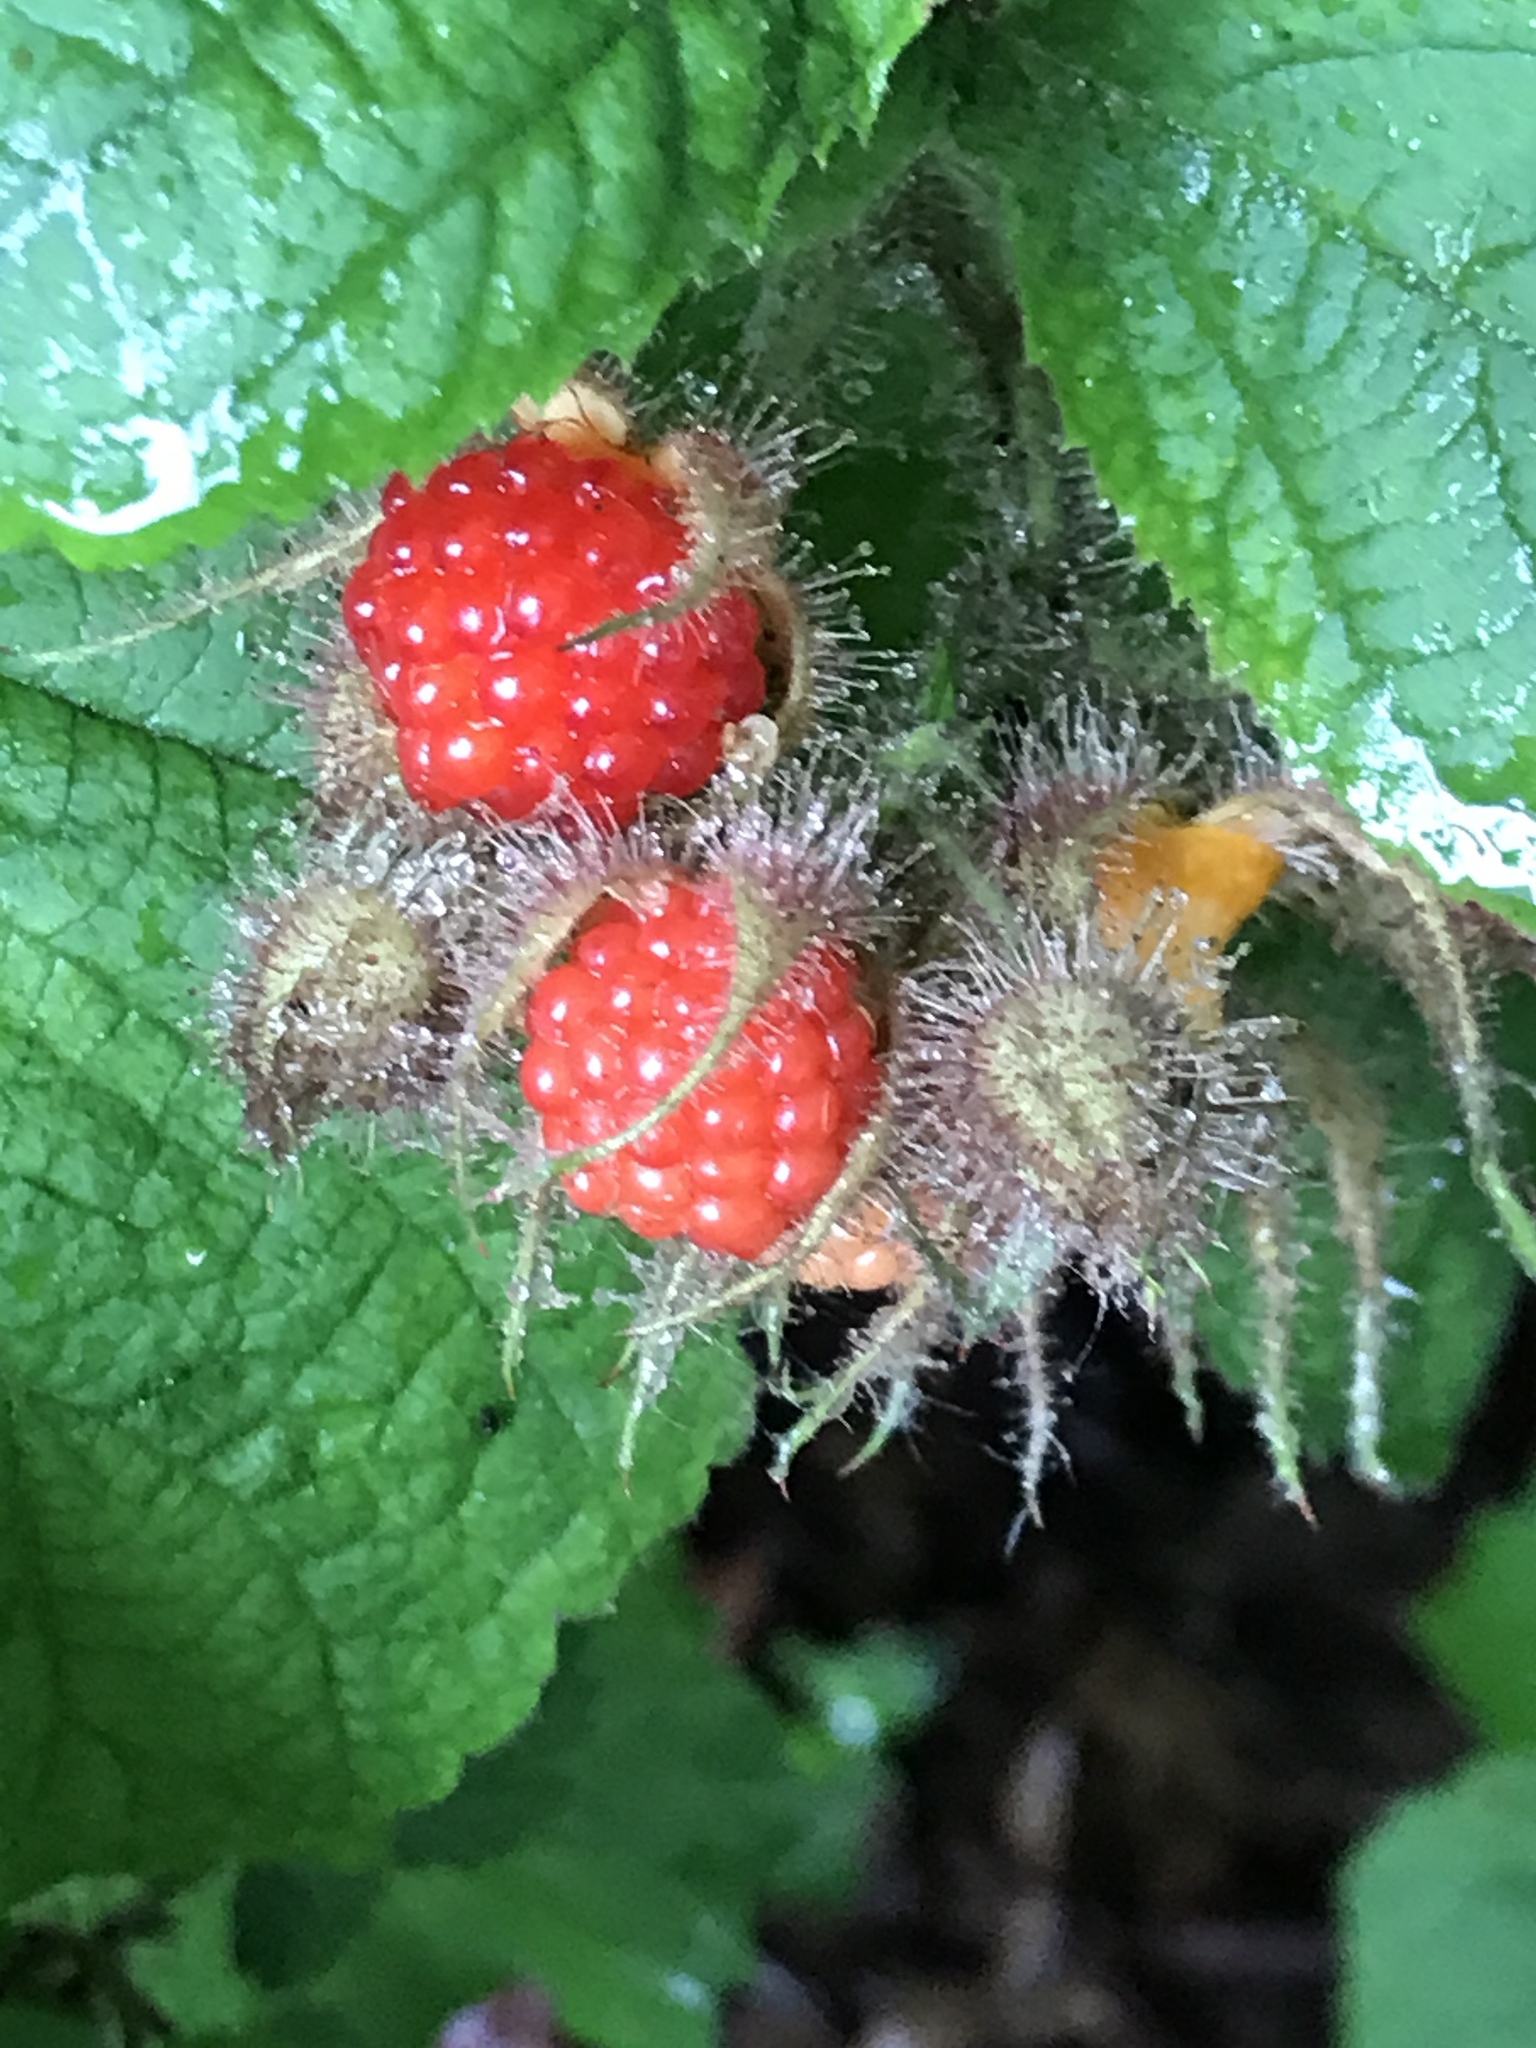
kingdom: Plantae
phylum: Tracheophyta
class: Magnoliopsida
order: Rosales
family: Rosaceae
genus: Rubus
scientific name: Rubus phoenicolasius
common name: Japanese wineberry
